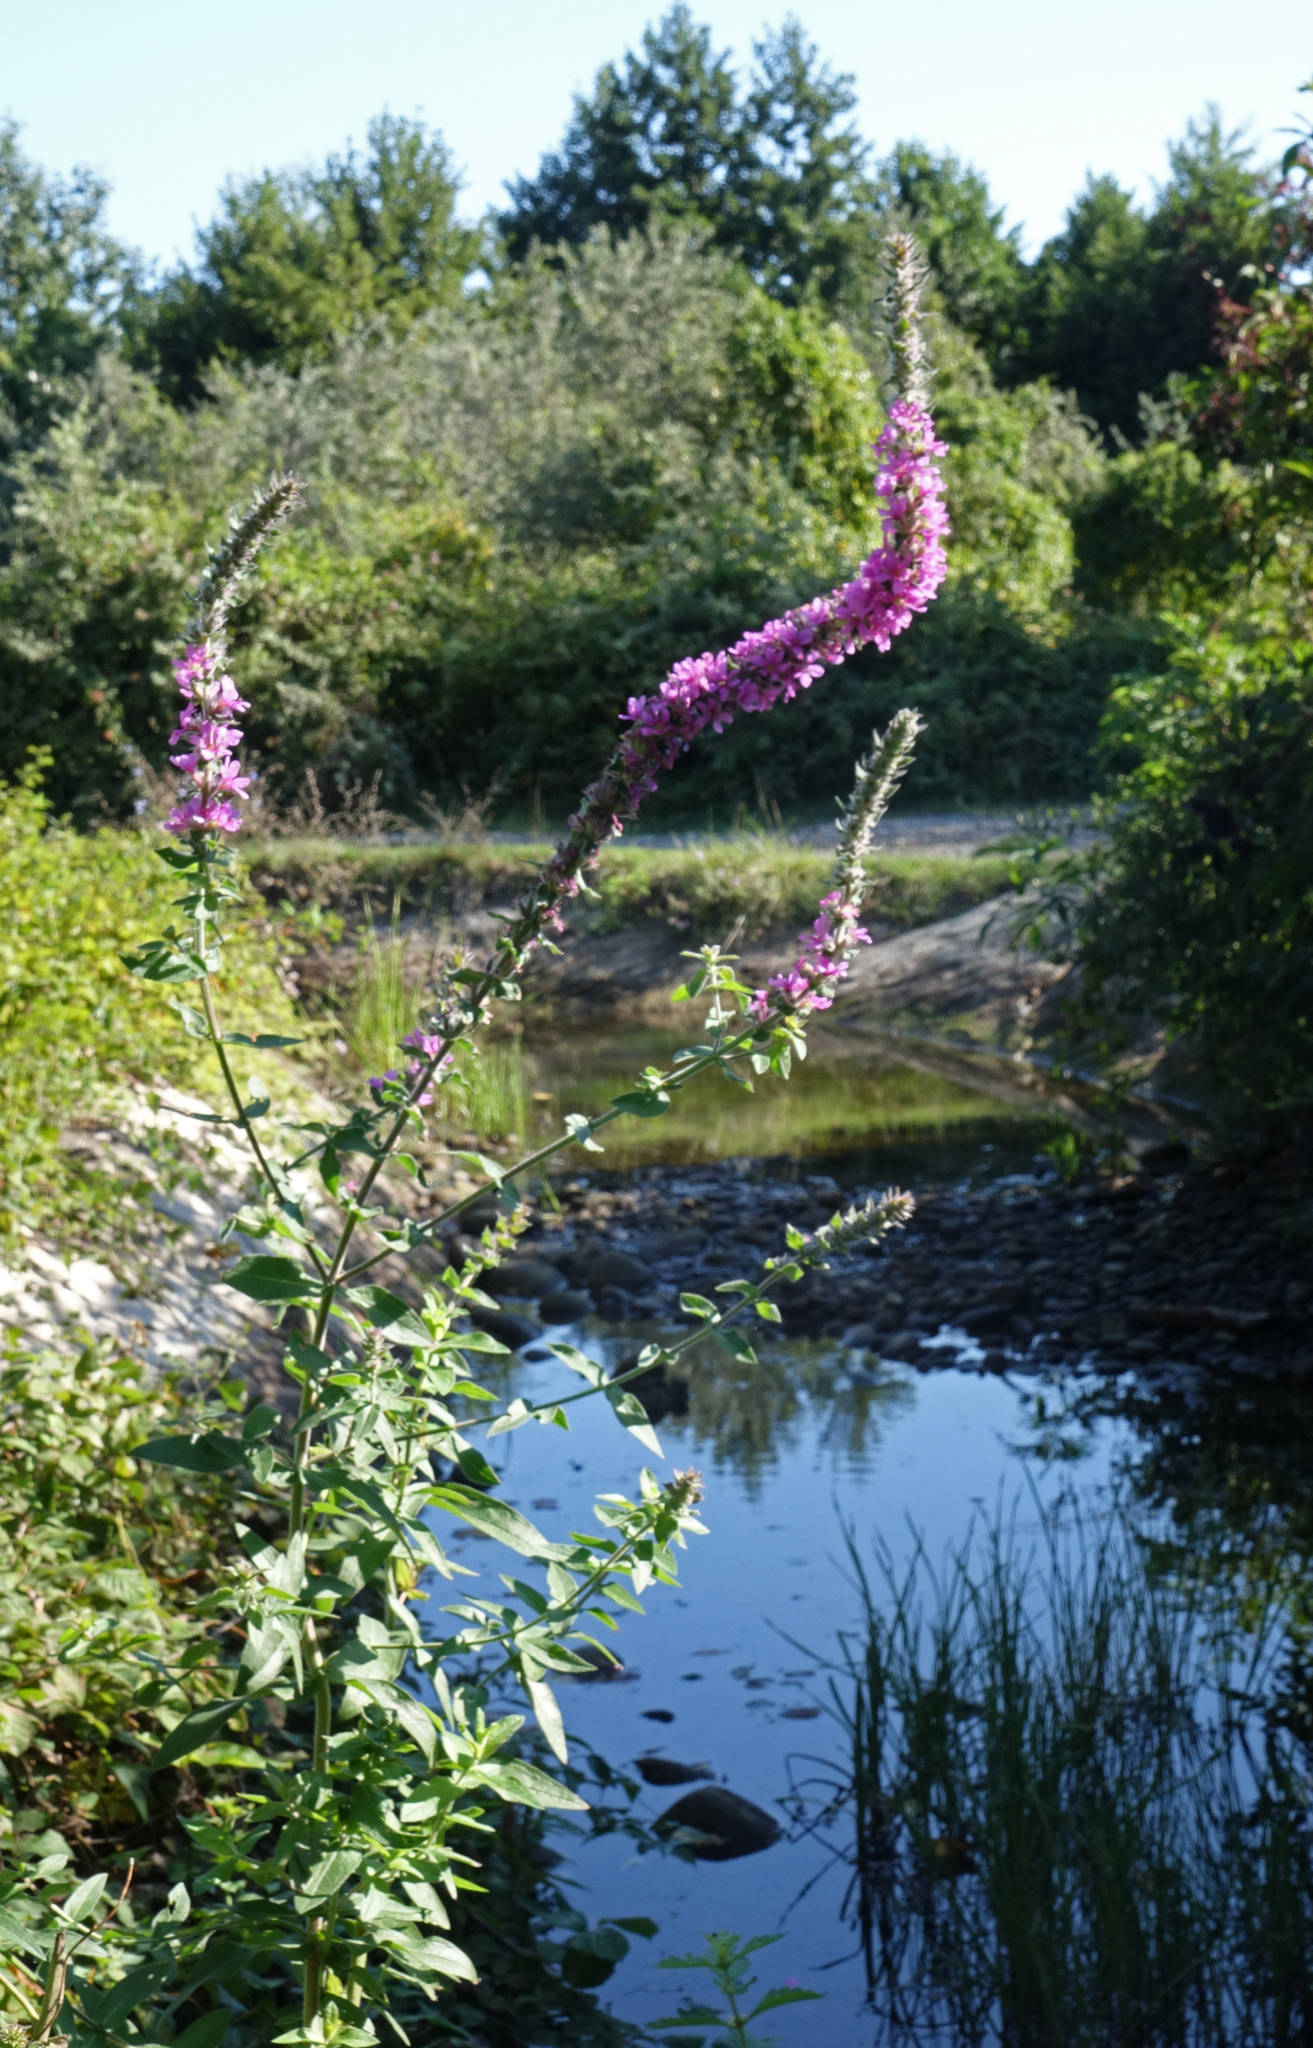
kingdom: Plantae
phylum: Tracheophyta
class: Magnoliopsida
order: Myrtales
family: Lythraceae
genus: Lythrum
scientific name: Lythrum salicaria
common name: Purple loosestrife
